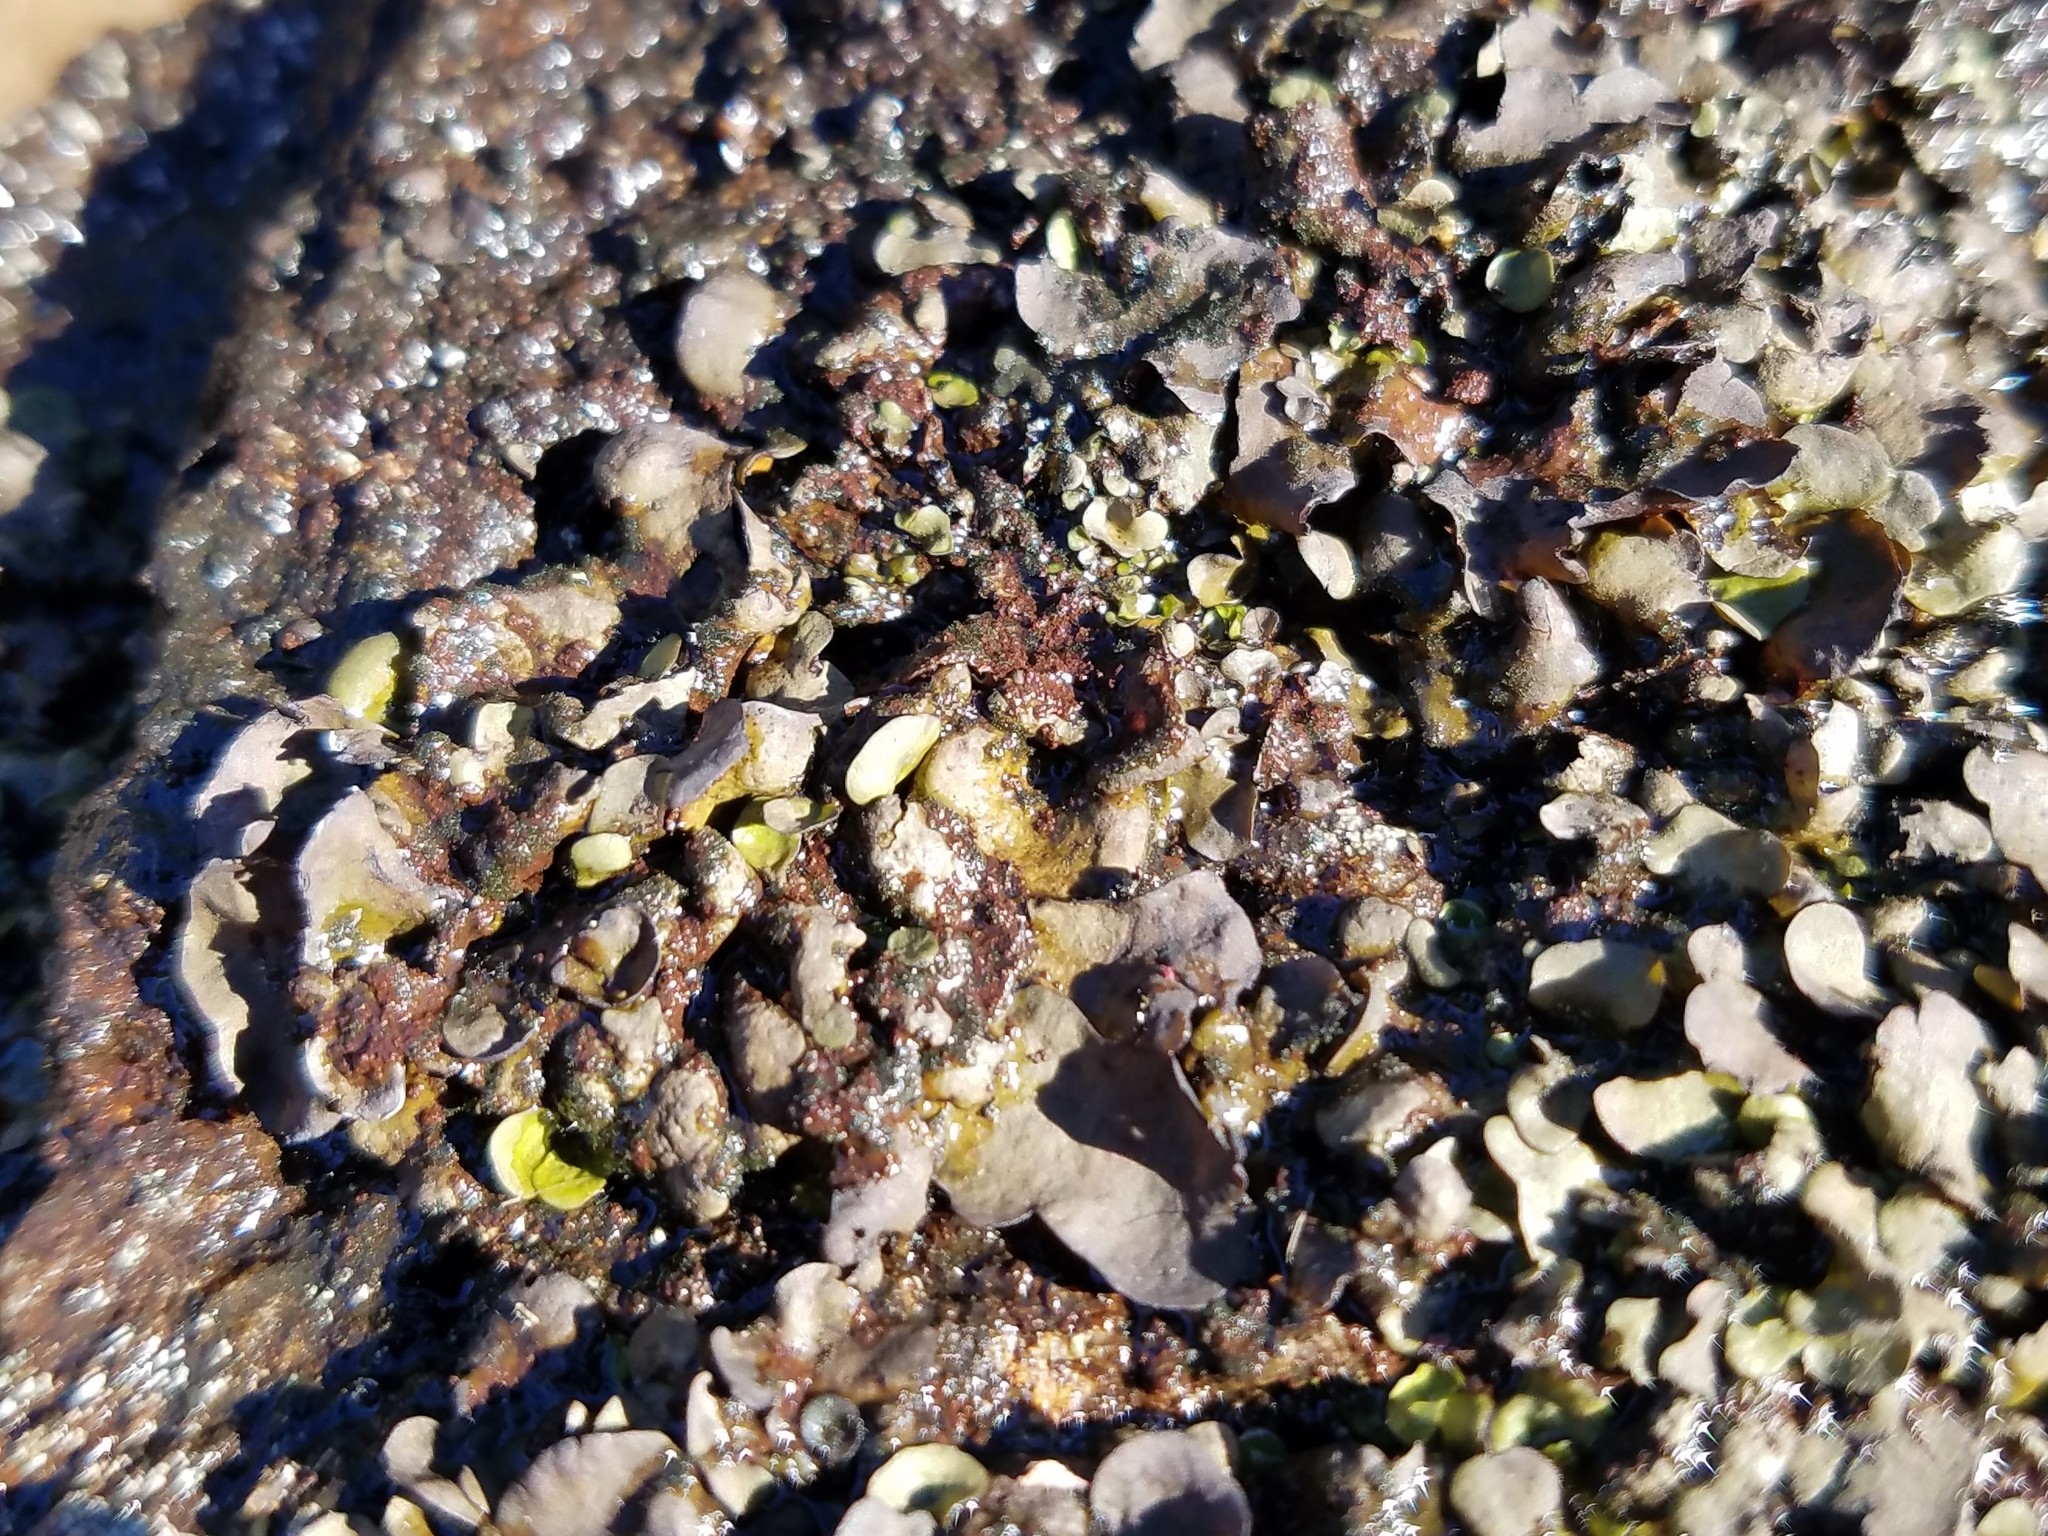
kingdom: Fungi
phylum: Ascomycota
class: Eurotiomycetes
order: Verrucariales
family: Verrucariaceae
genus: Dermatocarpon
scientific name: Dermatocarpon luridum
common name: Brook stippleback lichen
